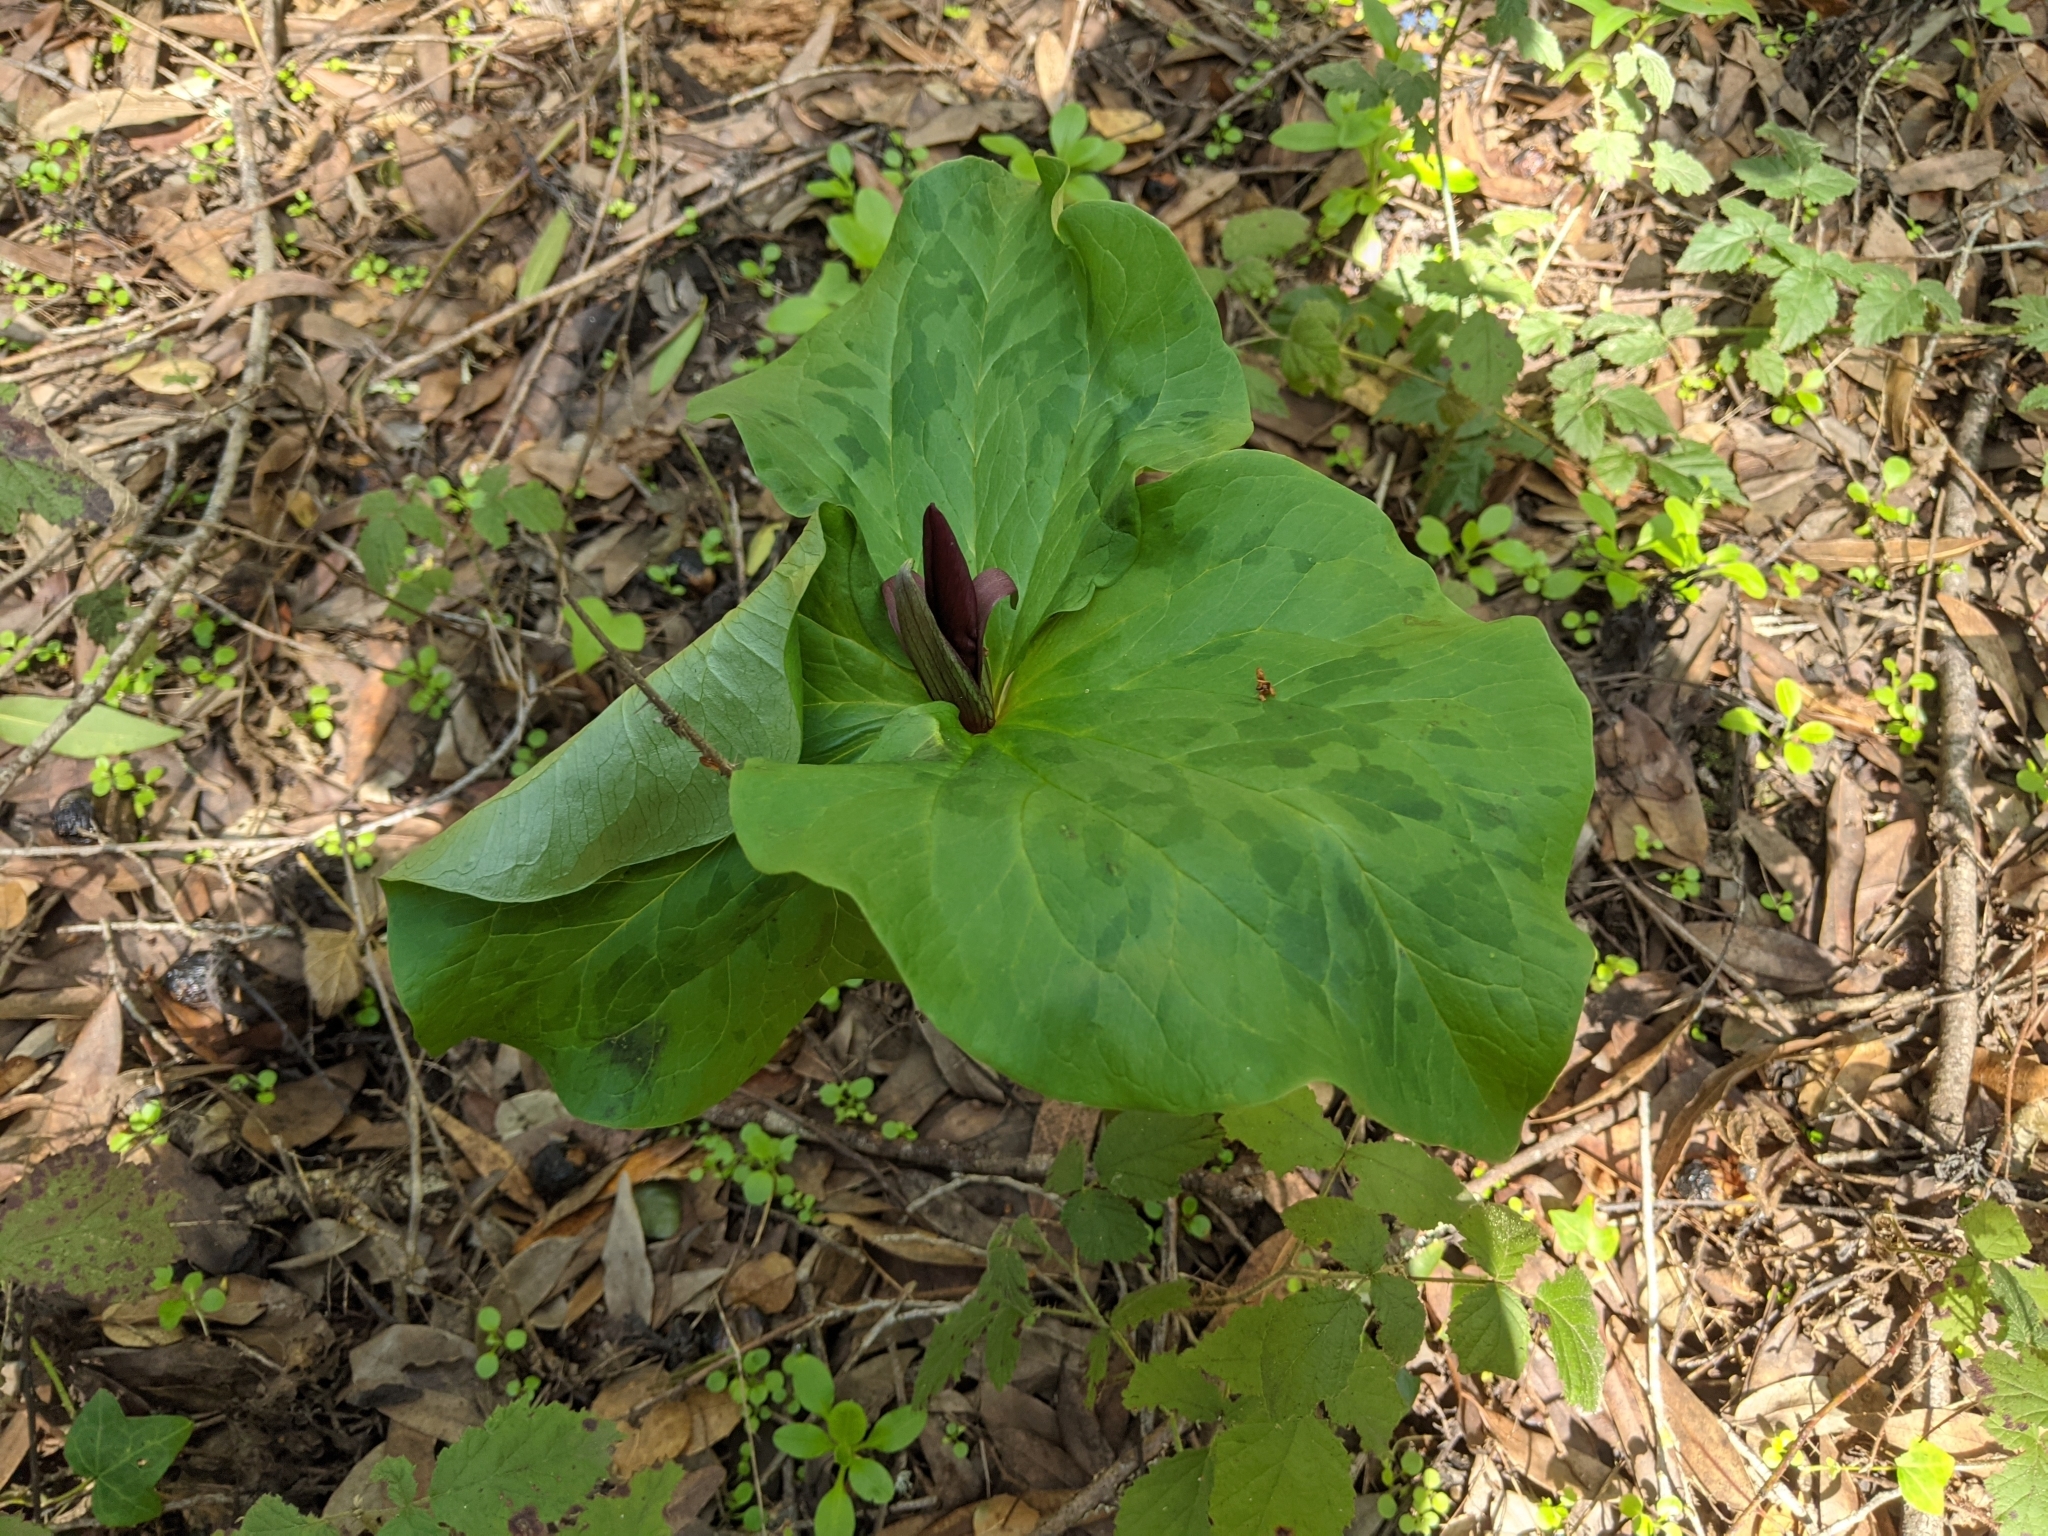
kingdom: Plantae
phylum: Tracheophyta
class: Liliopsida
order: Liliales
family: Melanthiaceae
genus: Trillium
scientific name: Trillium chloropetalum
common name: Giant trillium
